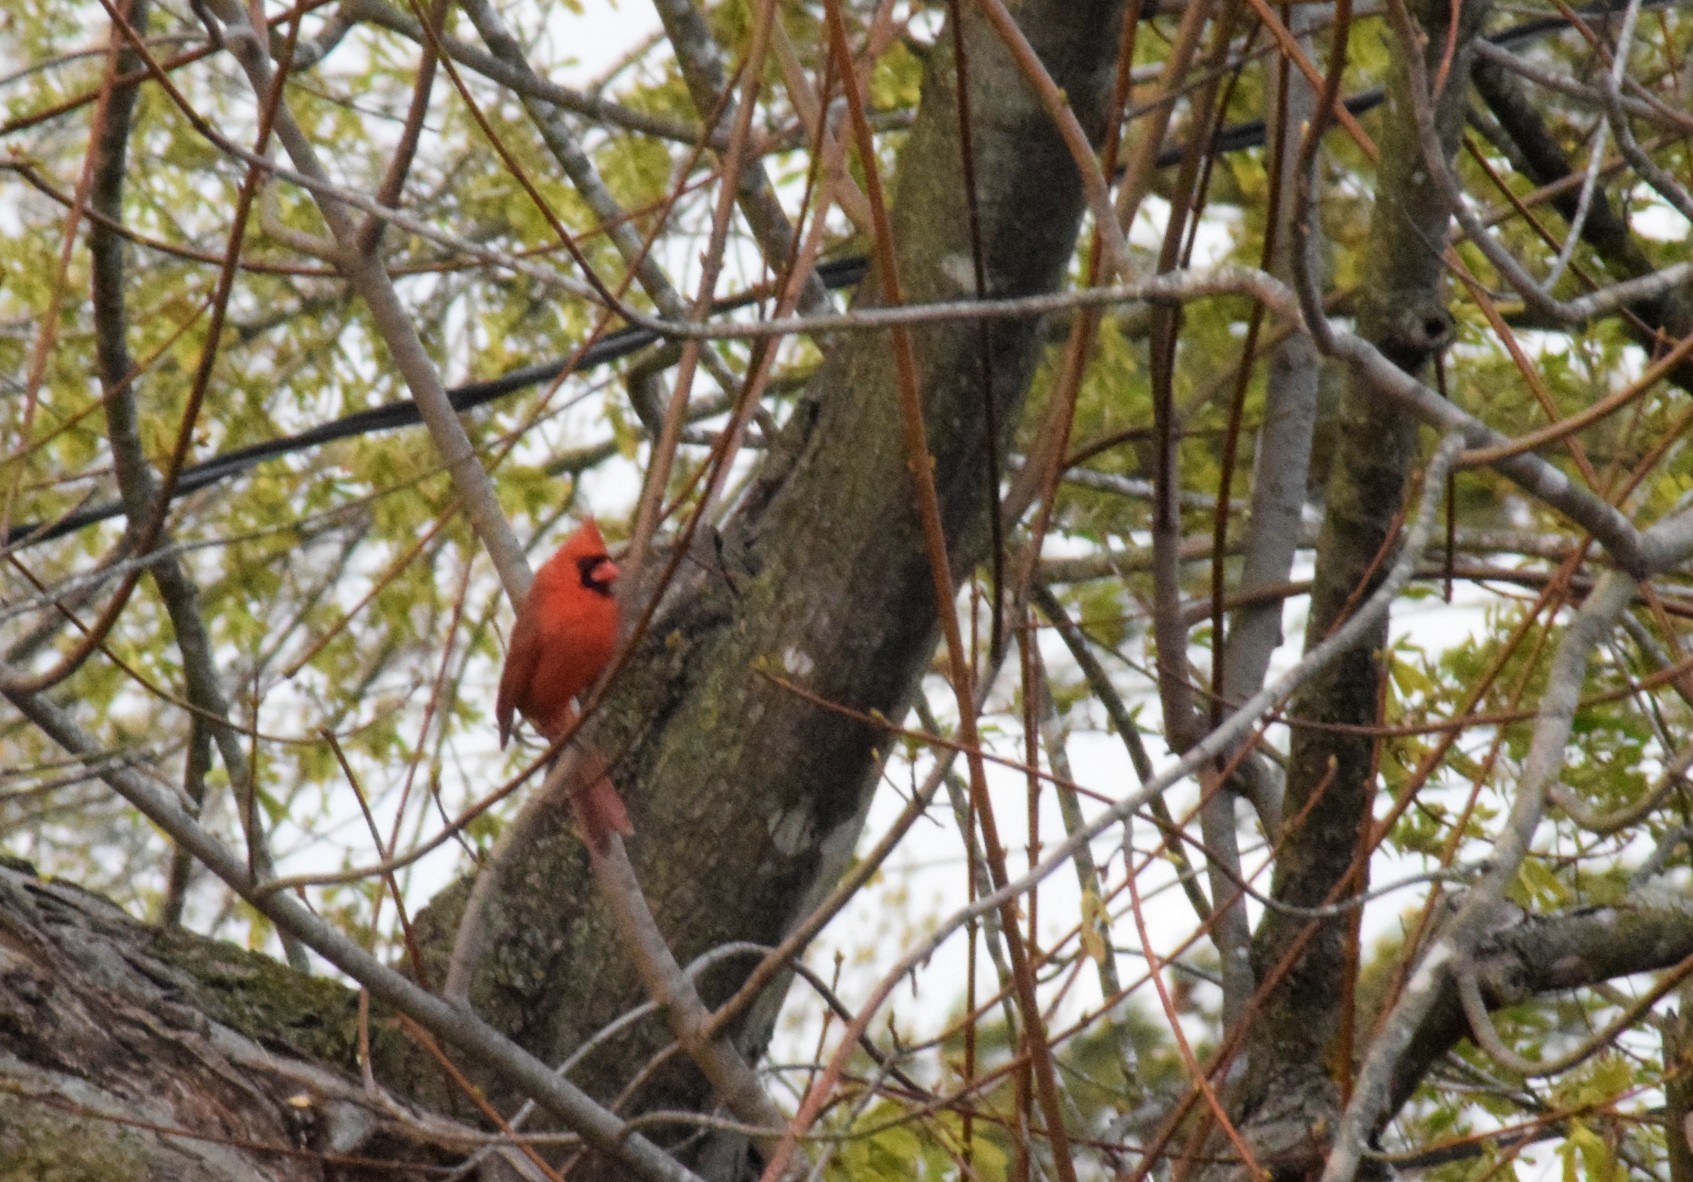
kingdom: Animalia
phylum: Chordata
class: Aves
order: Passeriformes
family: Cardinalidae
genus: Cardinalis
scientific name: Cardinalis cardinalis
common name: Northern cardinal
